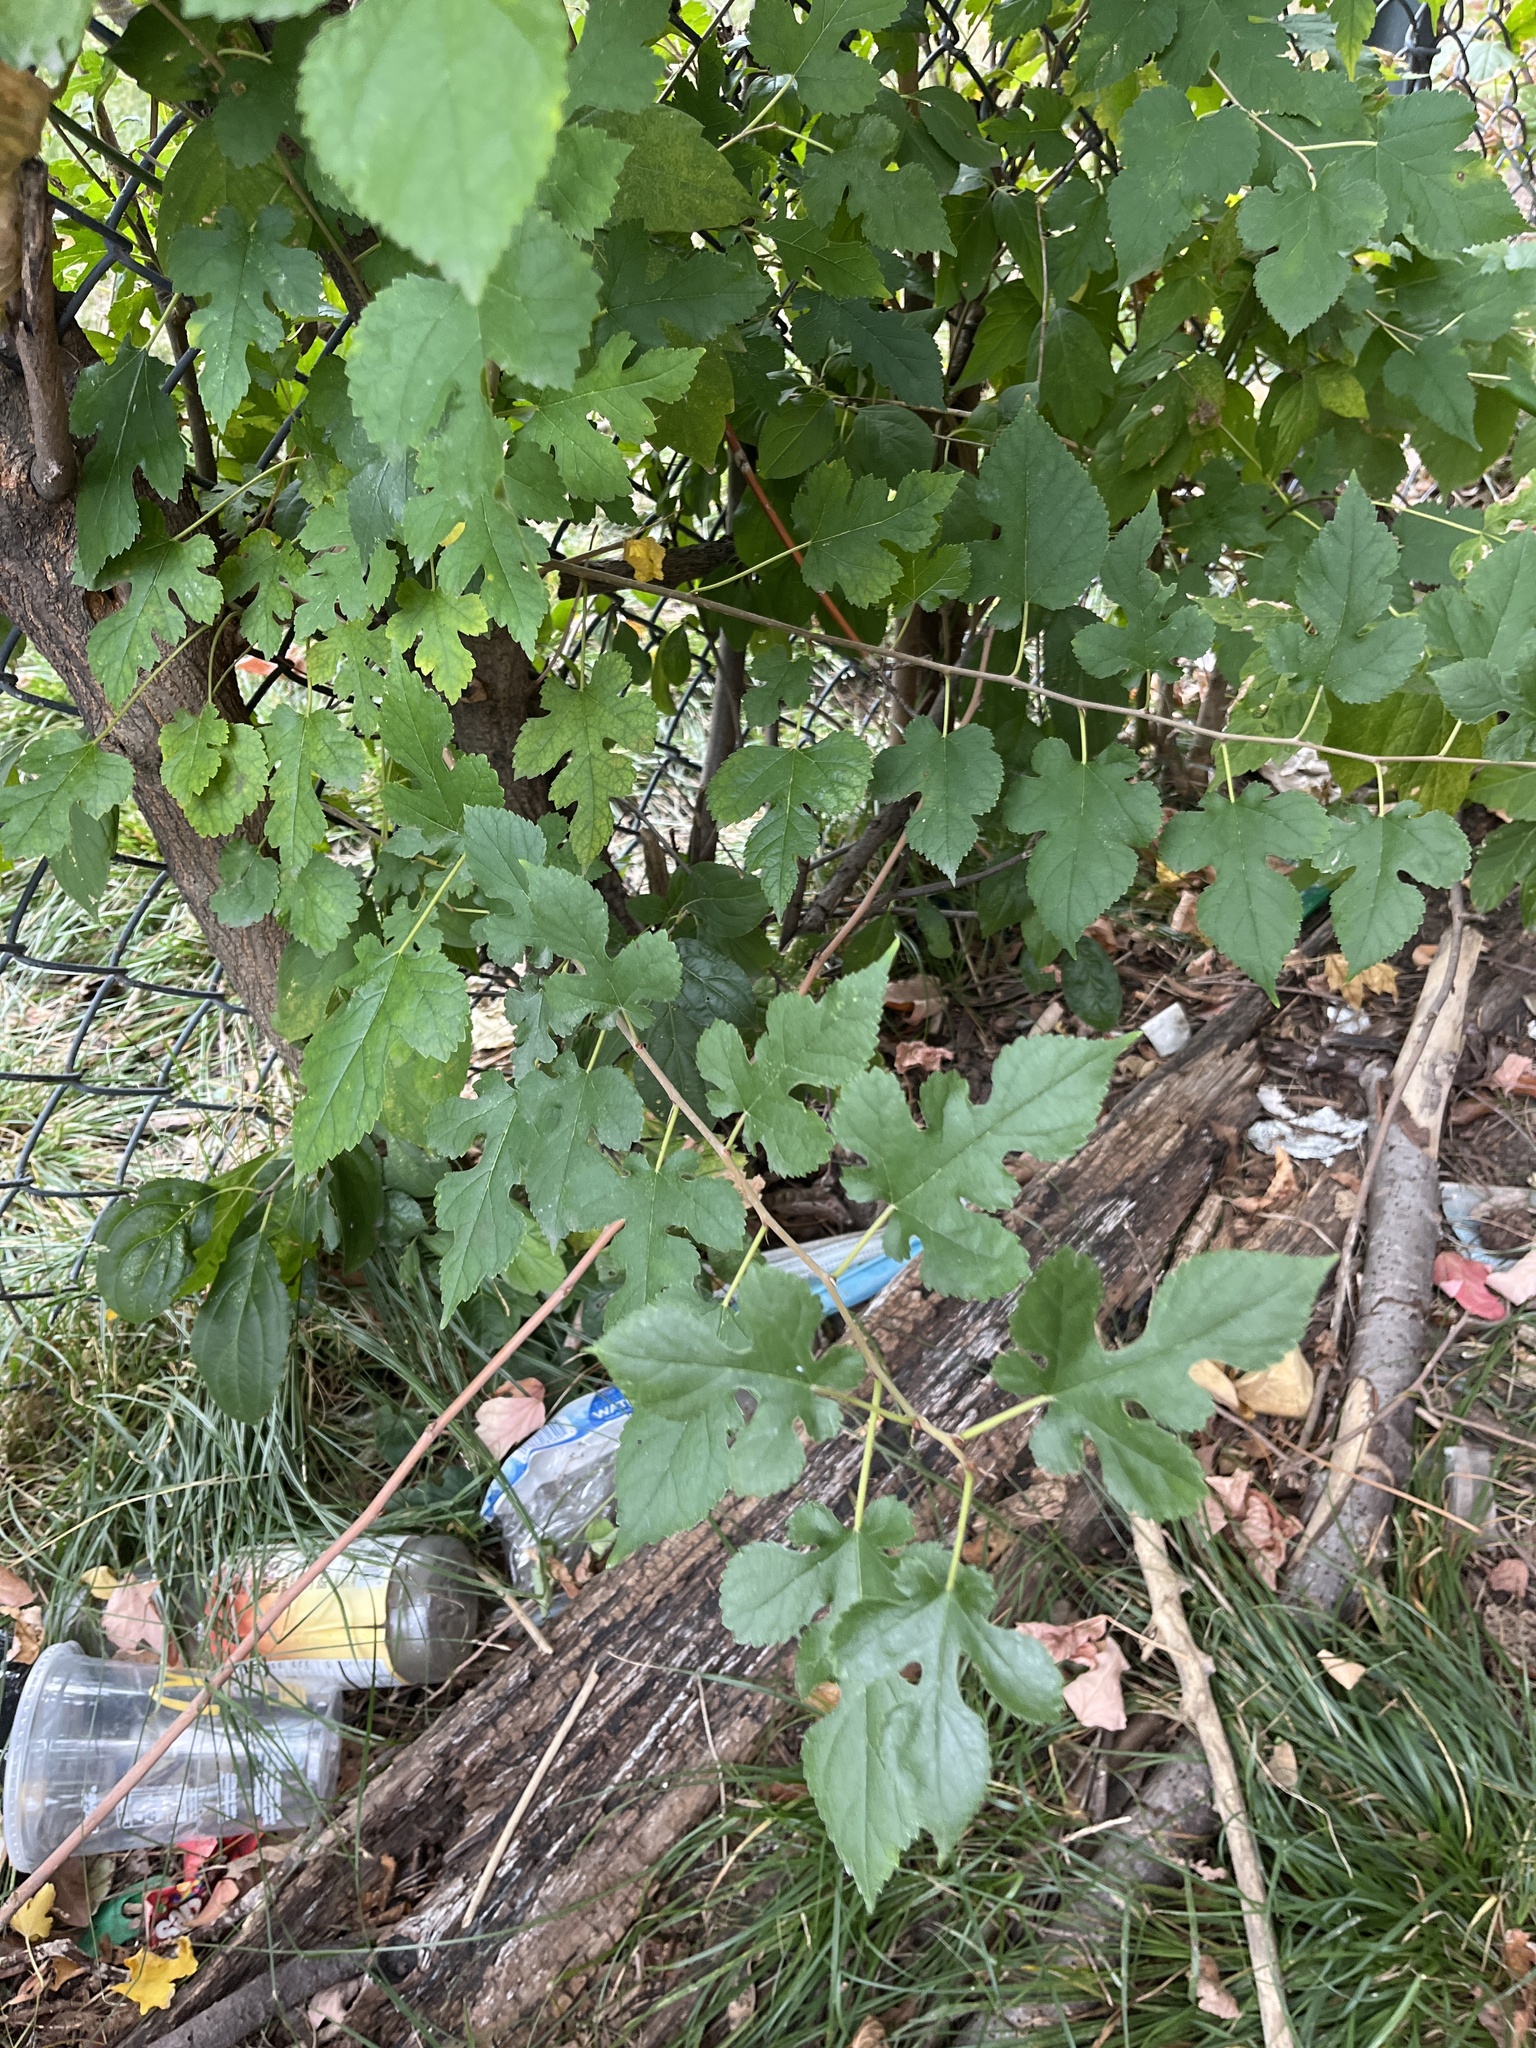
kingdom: Plantae
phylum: Tracheophyta
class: Magnoliopsida
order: Rosales
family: Moraceae
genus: Morus
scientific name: Morus alba
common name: White mulberry
